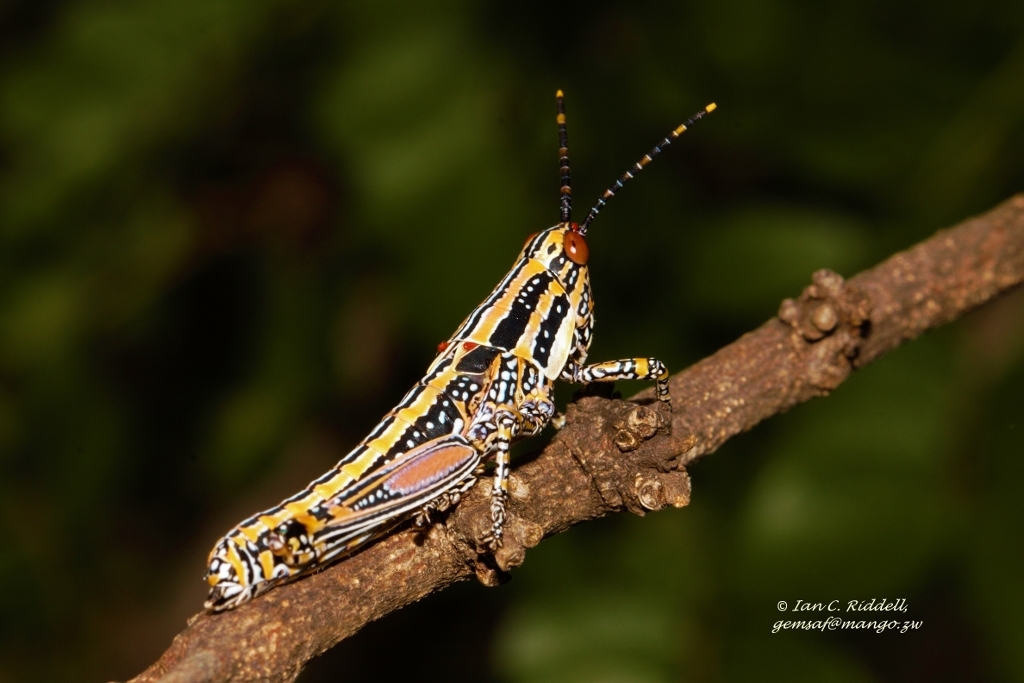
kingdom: Animalia
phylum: Arthropoda
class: Insecta
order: Orthoptera
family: Pyrgomorphidae
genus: Zonocerus
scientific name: Zonocerus elegans
